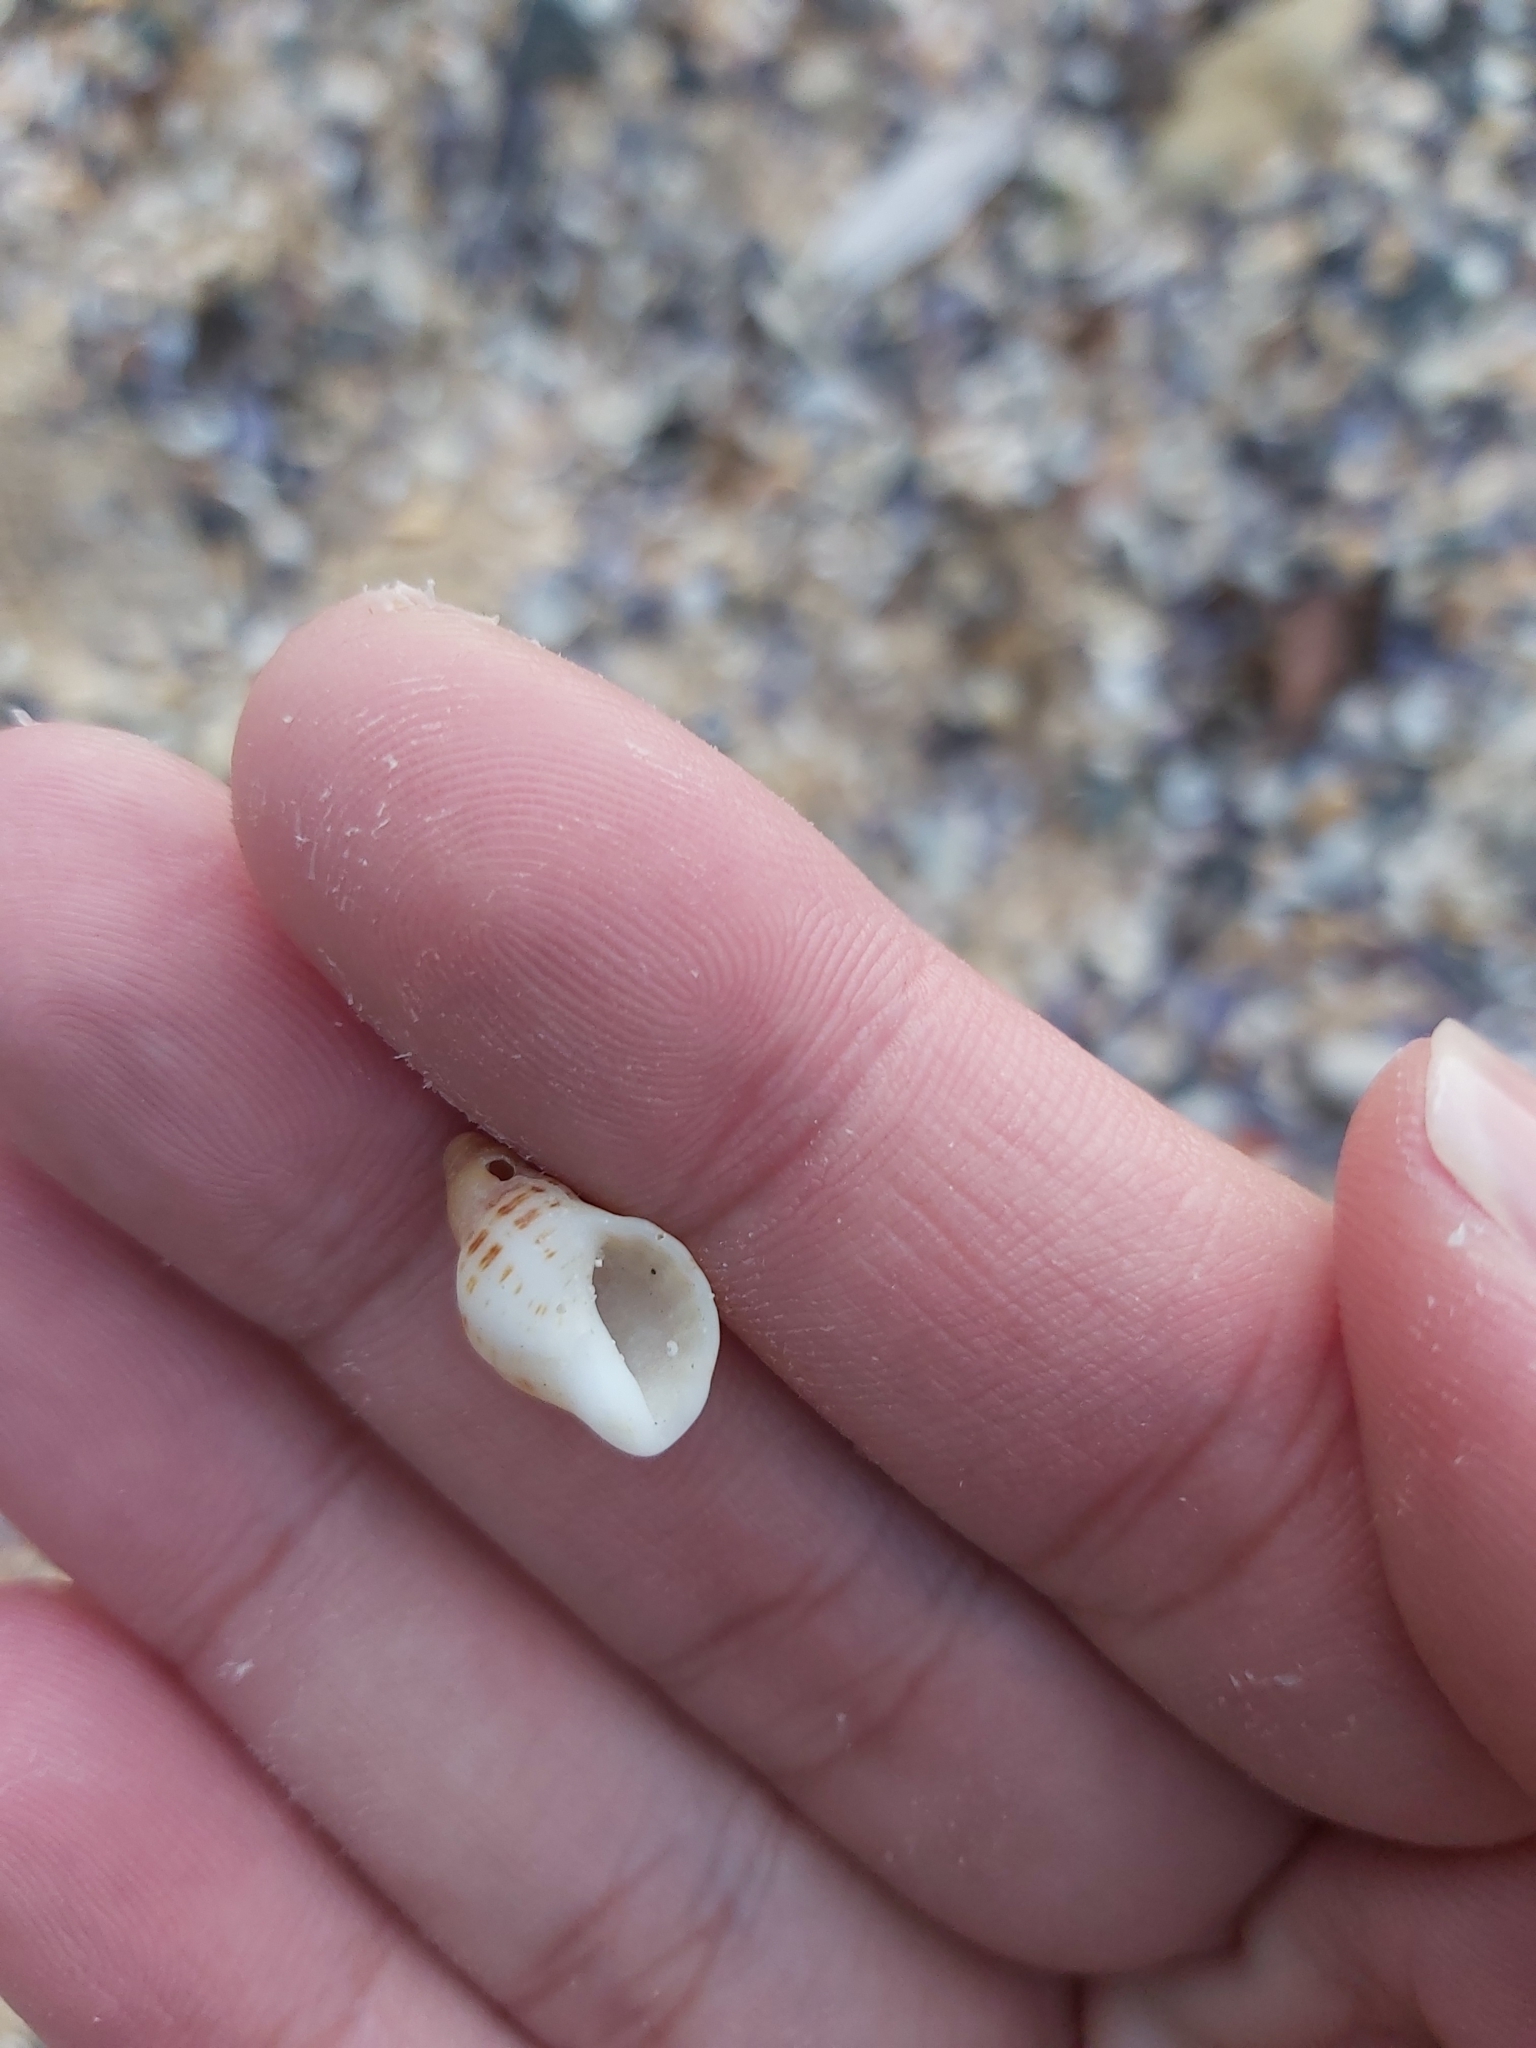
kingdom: Animalia
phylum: Mollusca
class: Gastropoda
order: Neogastropoda
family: Muricidae
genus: Agnewia
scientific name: Agnewia tritoniformis
